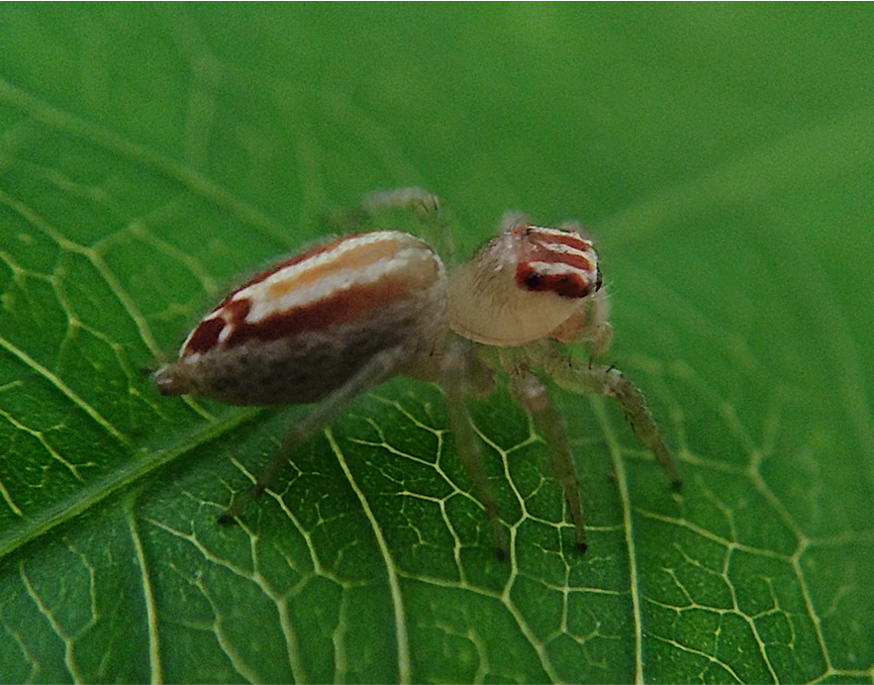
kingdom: Animalia
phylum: Arthropoda
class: Arachnida
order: Araneae
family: Salticidae
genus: Chira
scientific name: Chira simoni
